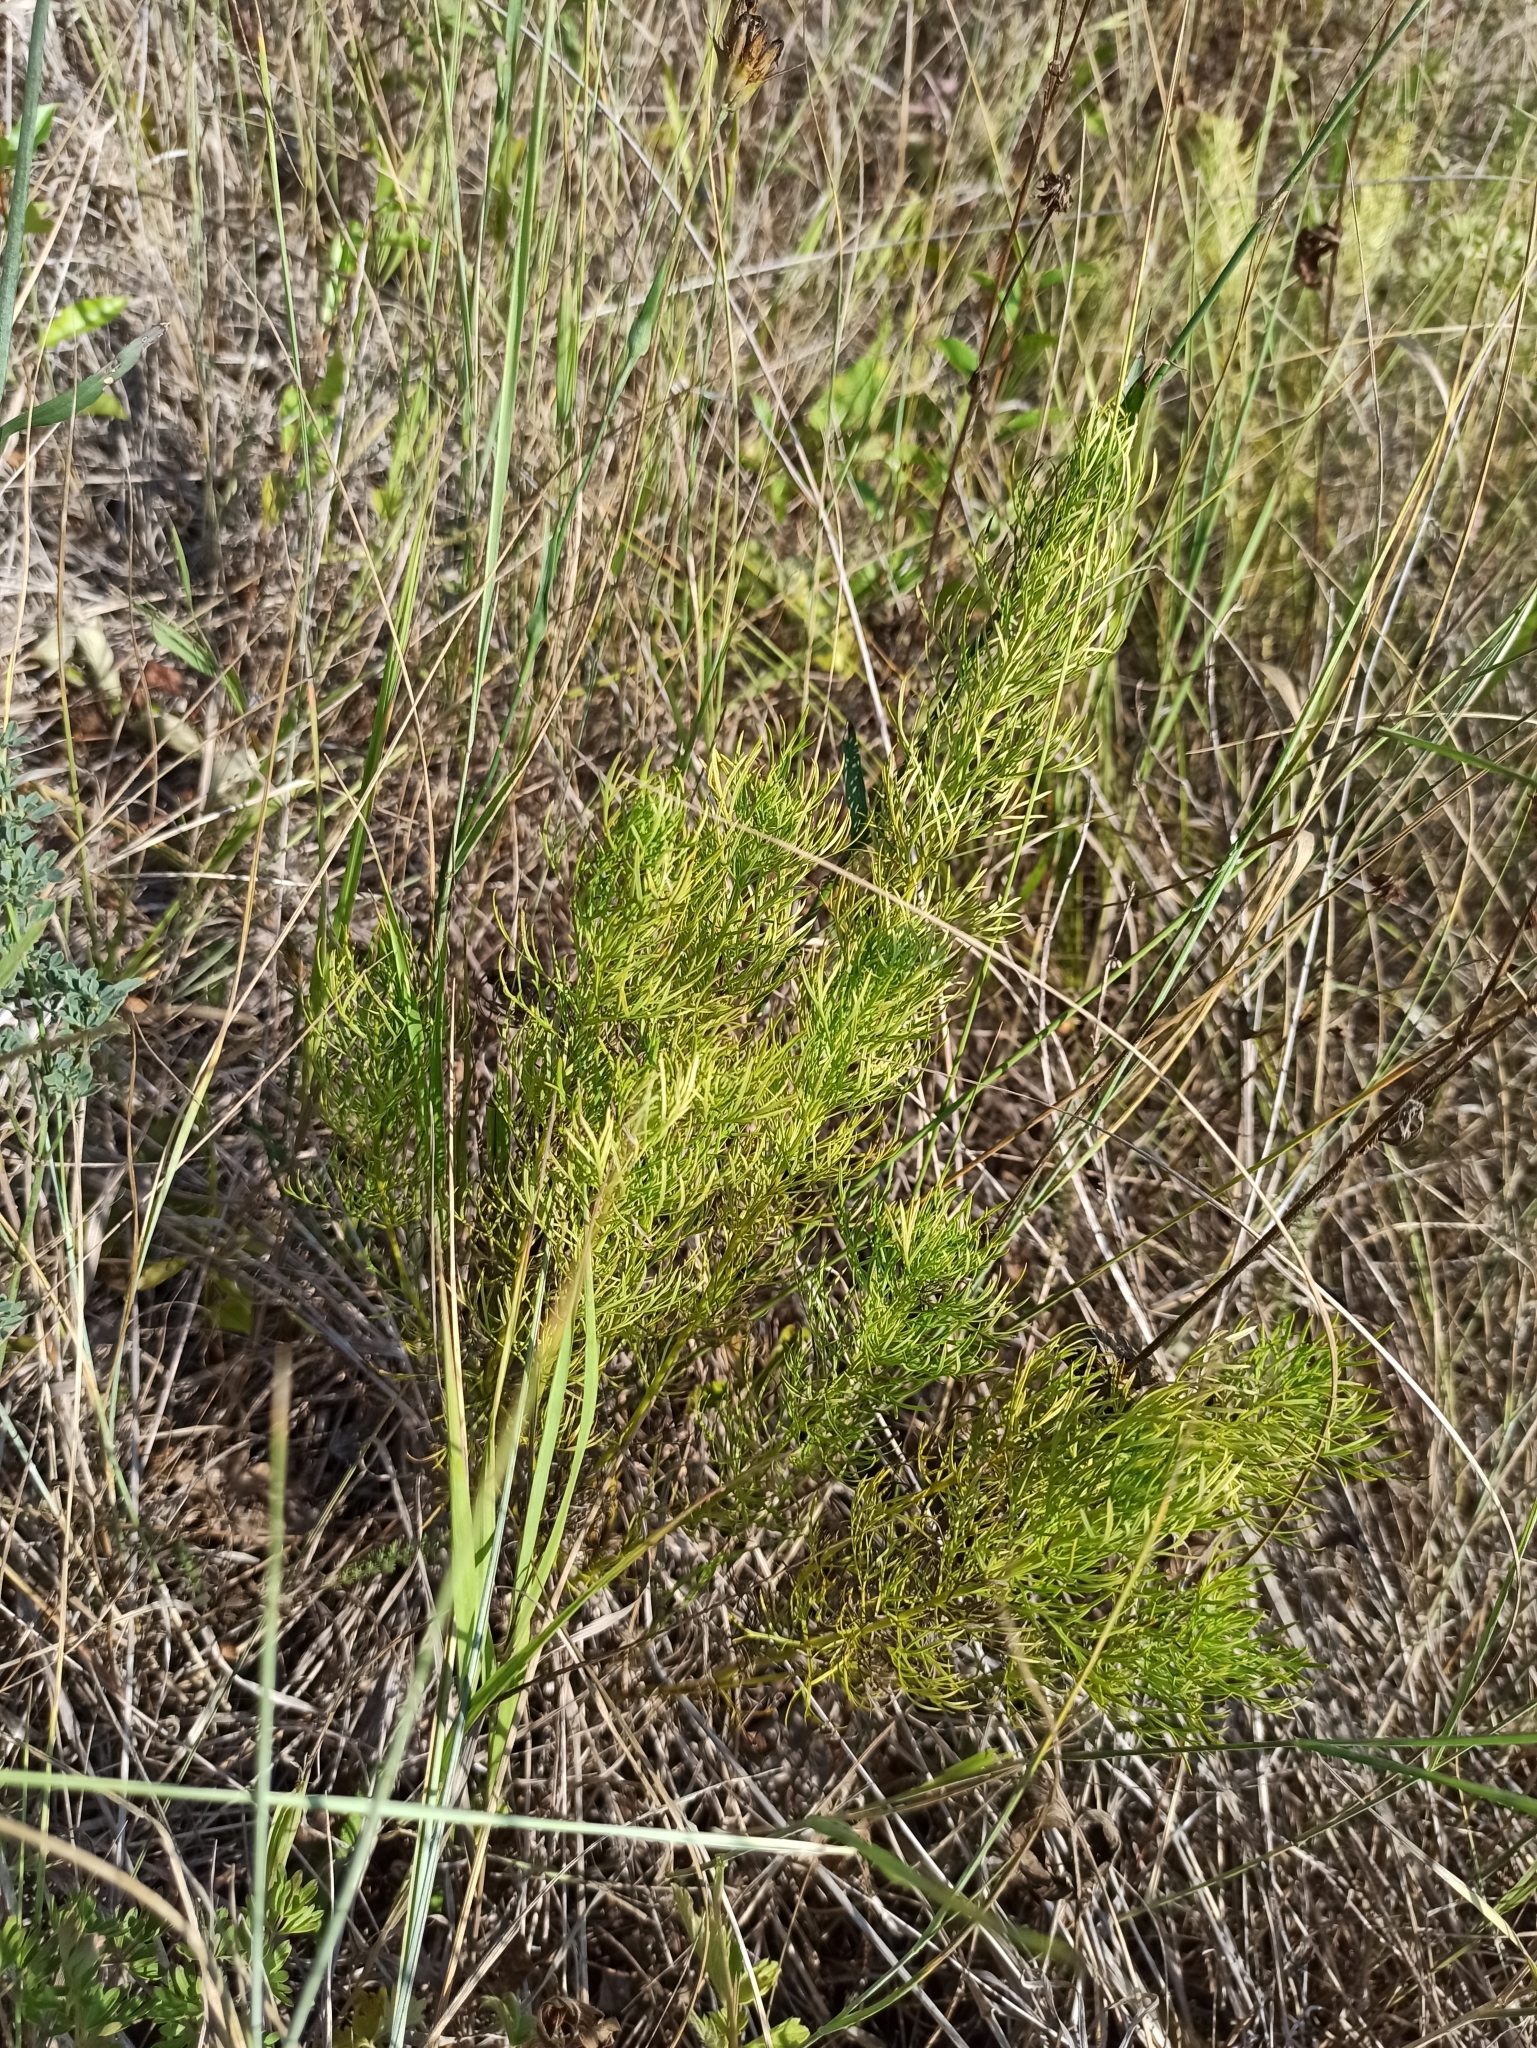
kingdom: Plantae
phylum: Tracheophyta
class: Magnoliopsida
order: Ranunculales
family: Ranunculaceae
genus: Adonis
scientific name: Adonis vernalis
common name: Yellow pheasants-eye
